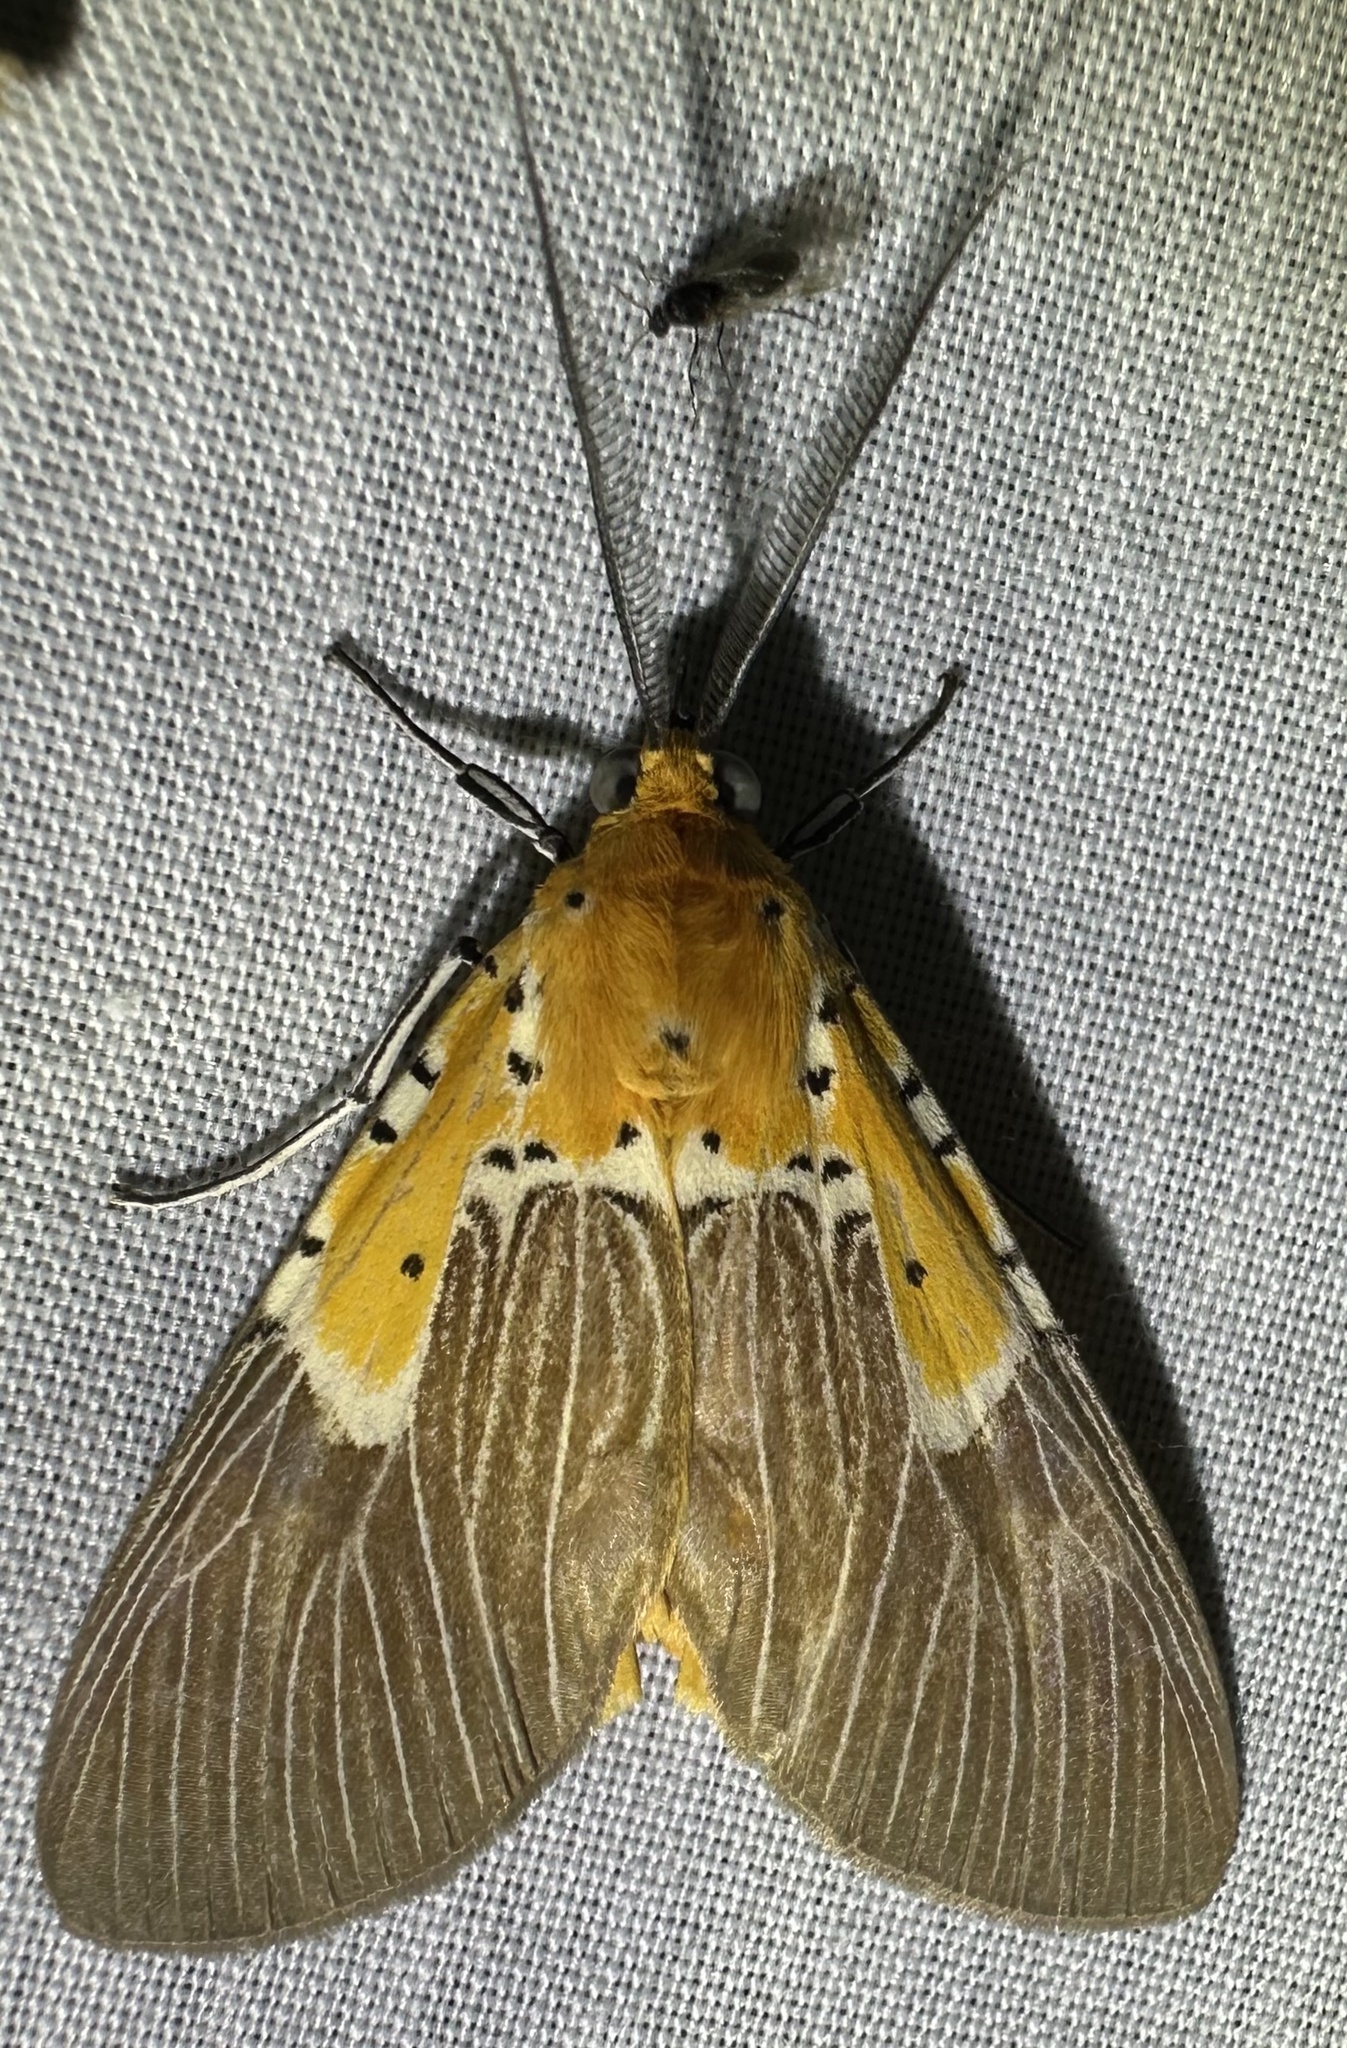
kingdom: Animalia
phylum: Arthropoda
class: Insecta
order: Lepidoptera
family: Erebidae
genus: Asota
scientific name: Asota speciosa
